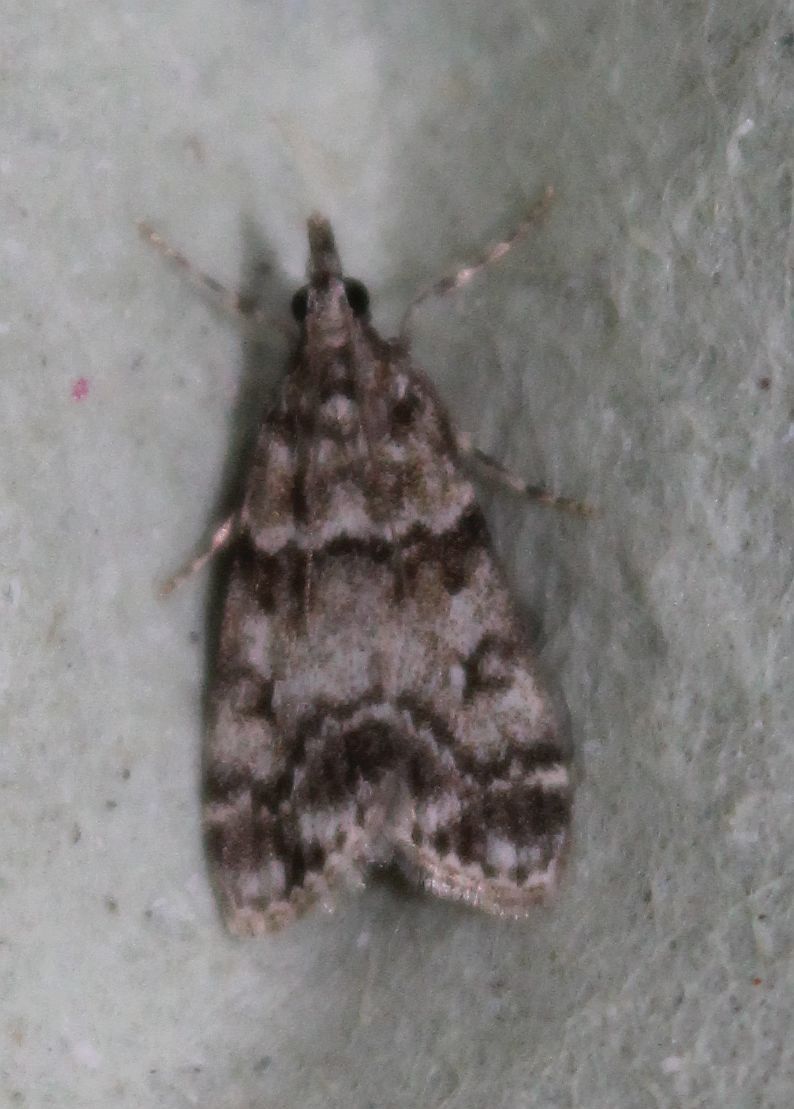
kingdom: Animalia
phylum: Arthropoda
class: Insecta
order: Lepidoptera
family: Crambidae
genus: Eudonia
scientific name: Eudonia lacustrata
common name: Little grey
